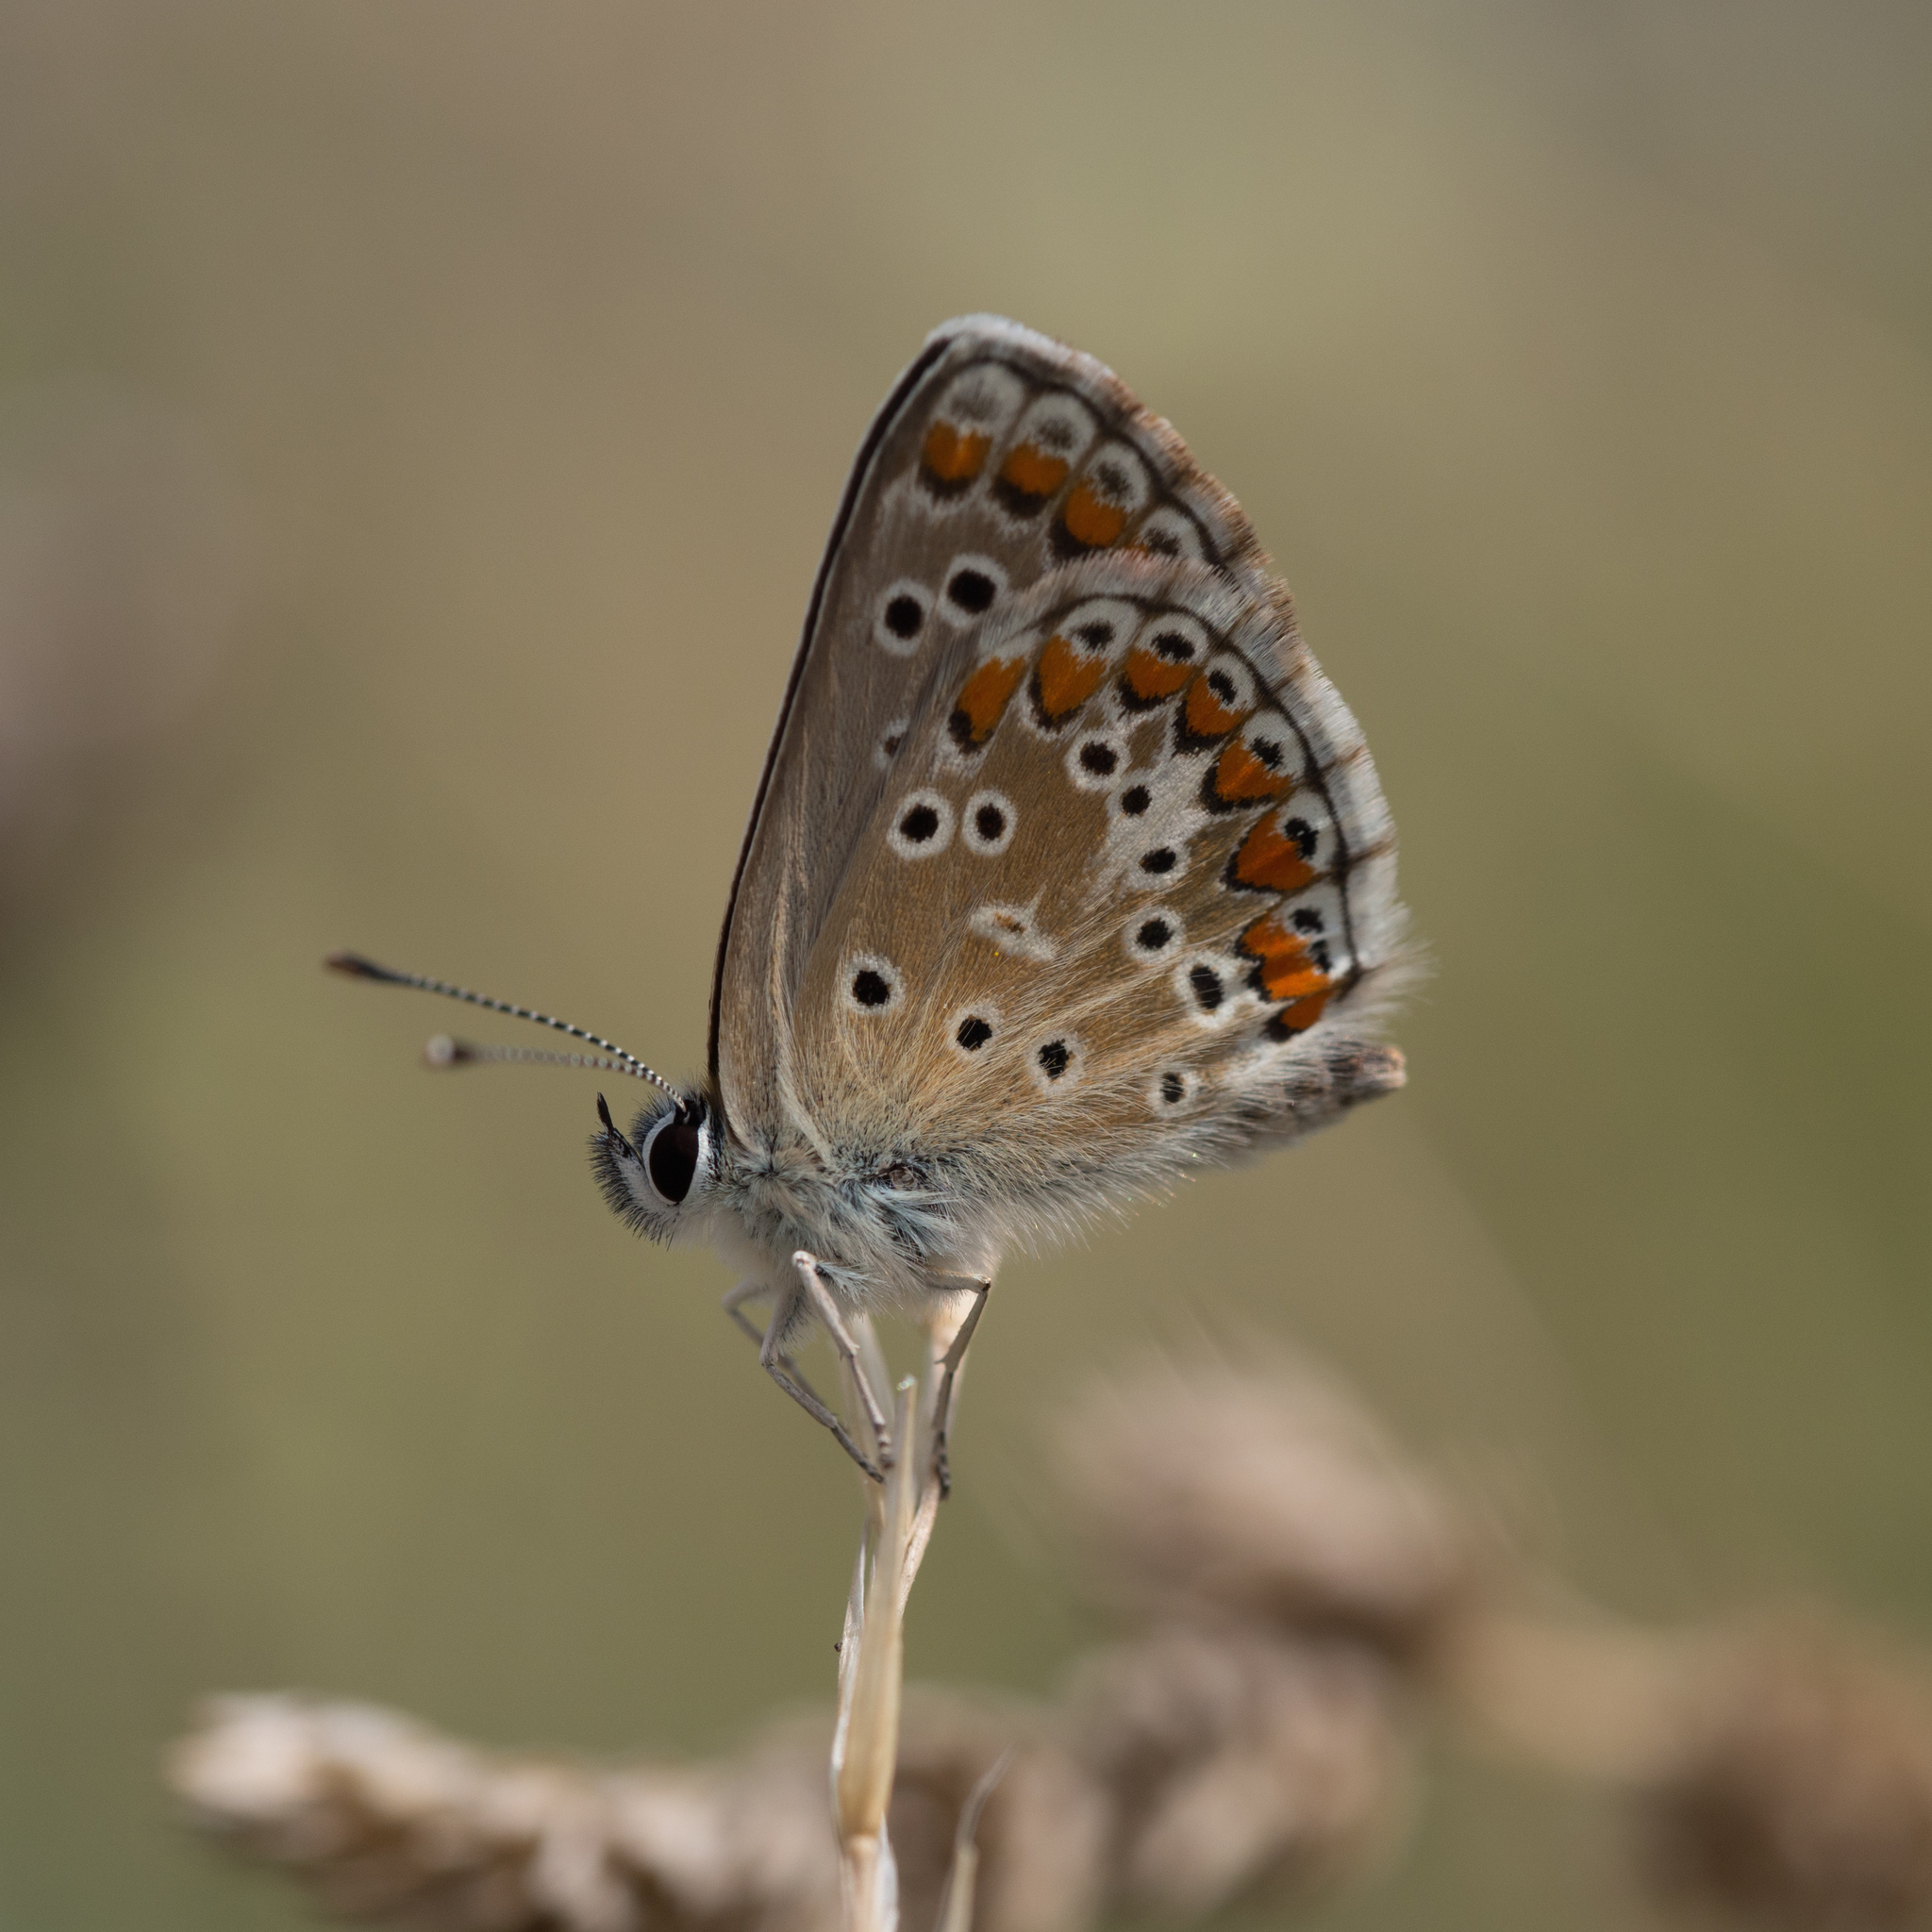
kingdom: Animalia
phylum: Arthropoda
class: Insecta
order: Lepidoptera
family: Lycaenidae
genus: Aricia
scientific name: Aricia agestis
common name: Brown argus
